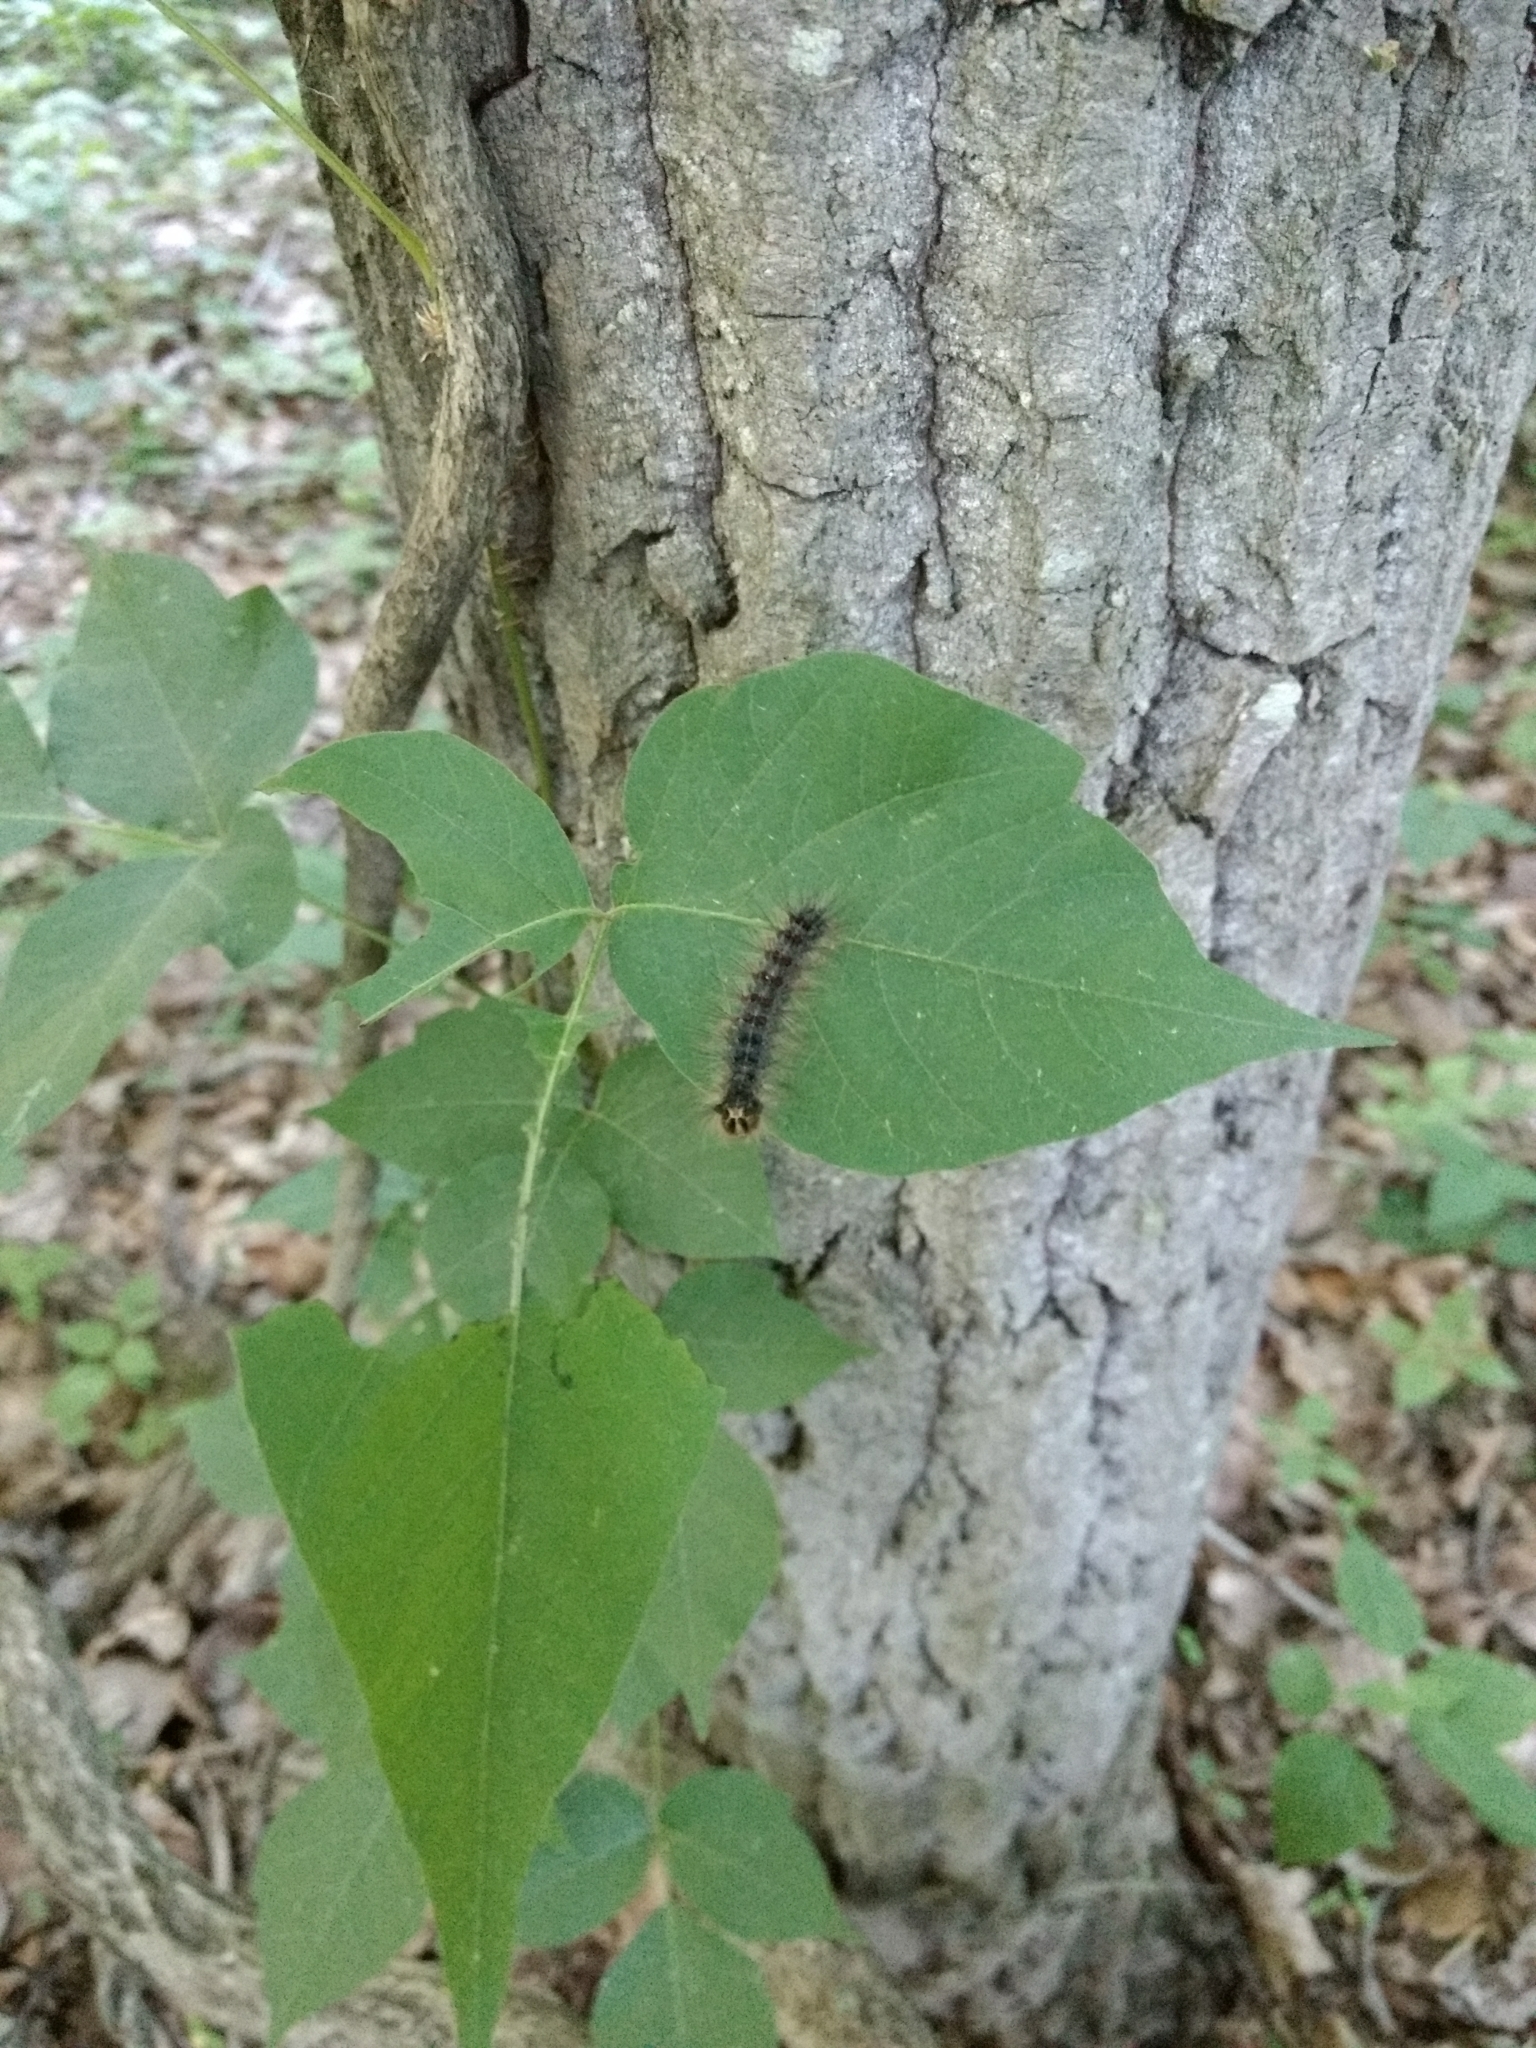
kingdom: Animalia
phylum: Arthropoda
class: Insecta
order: Lepidoptera
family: Erebidae
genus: Lymantria
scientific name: Lymantria dispar
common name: Gypsy moth
